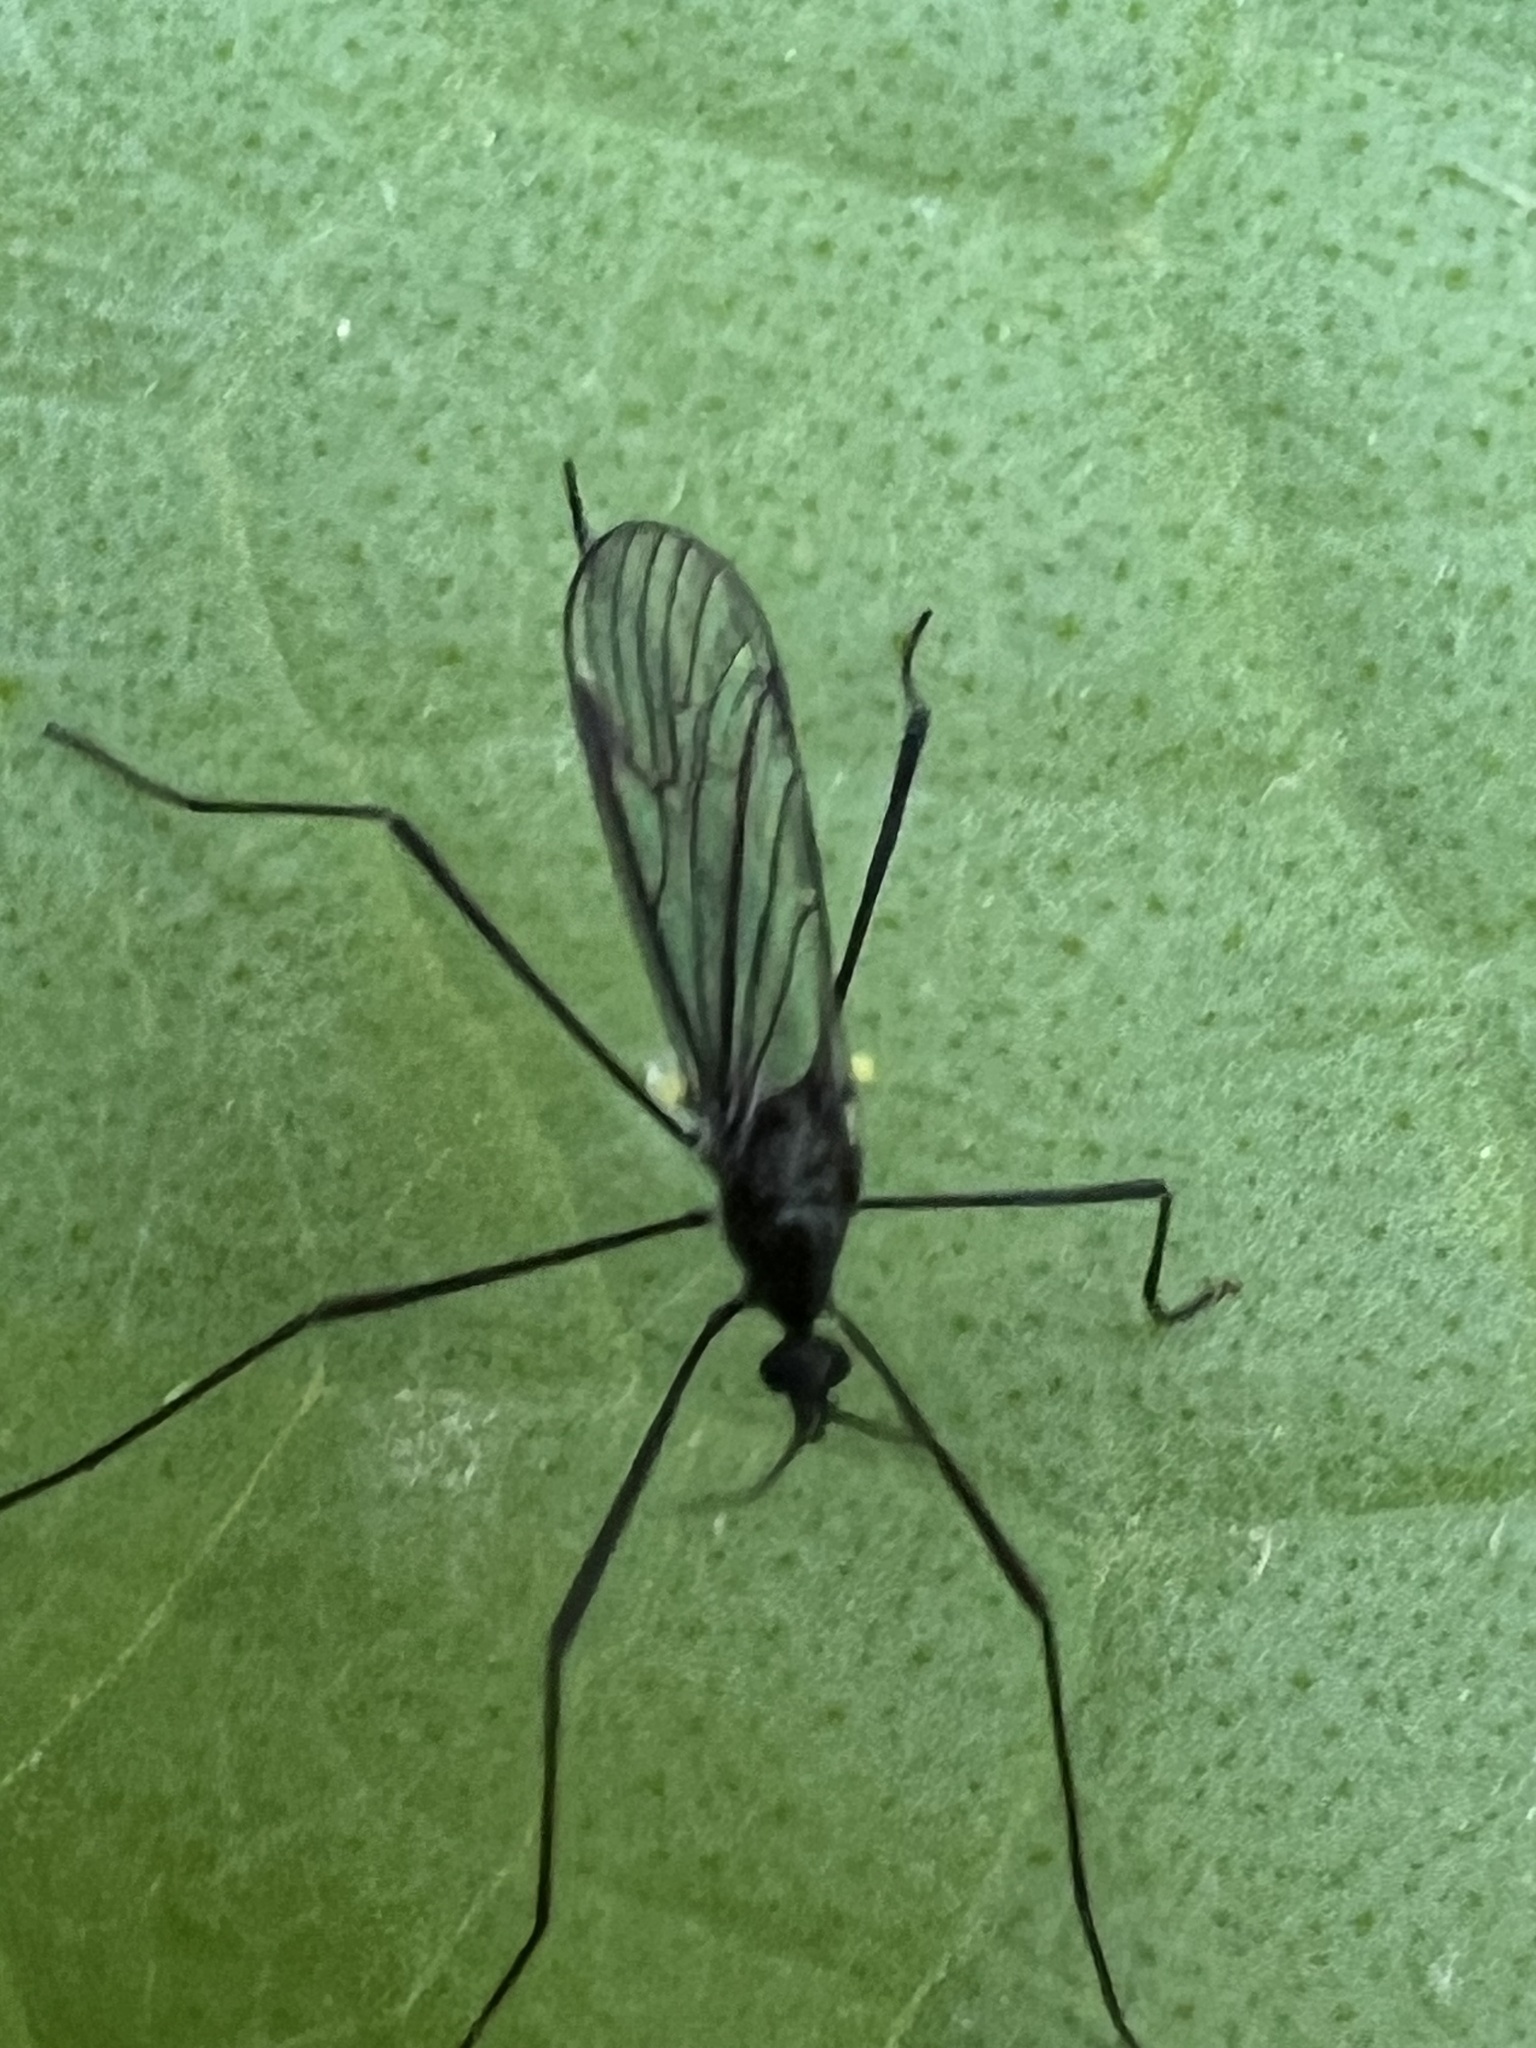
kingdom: Animalia
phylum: Arthropoda
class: Insecta
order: Diptera
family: Limoniidae
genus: Gnophomyia
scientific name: Gnophomyia tristissima
